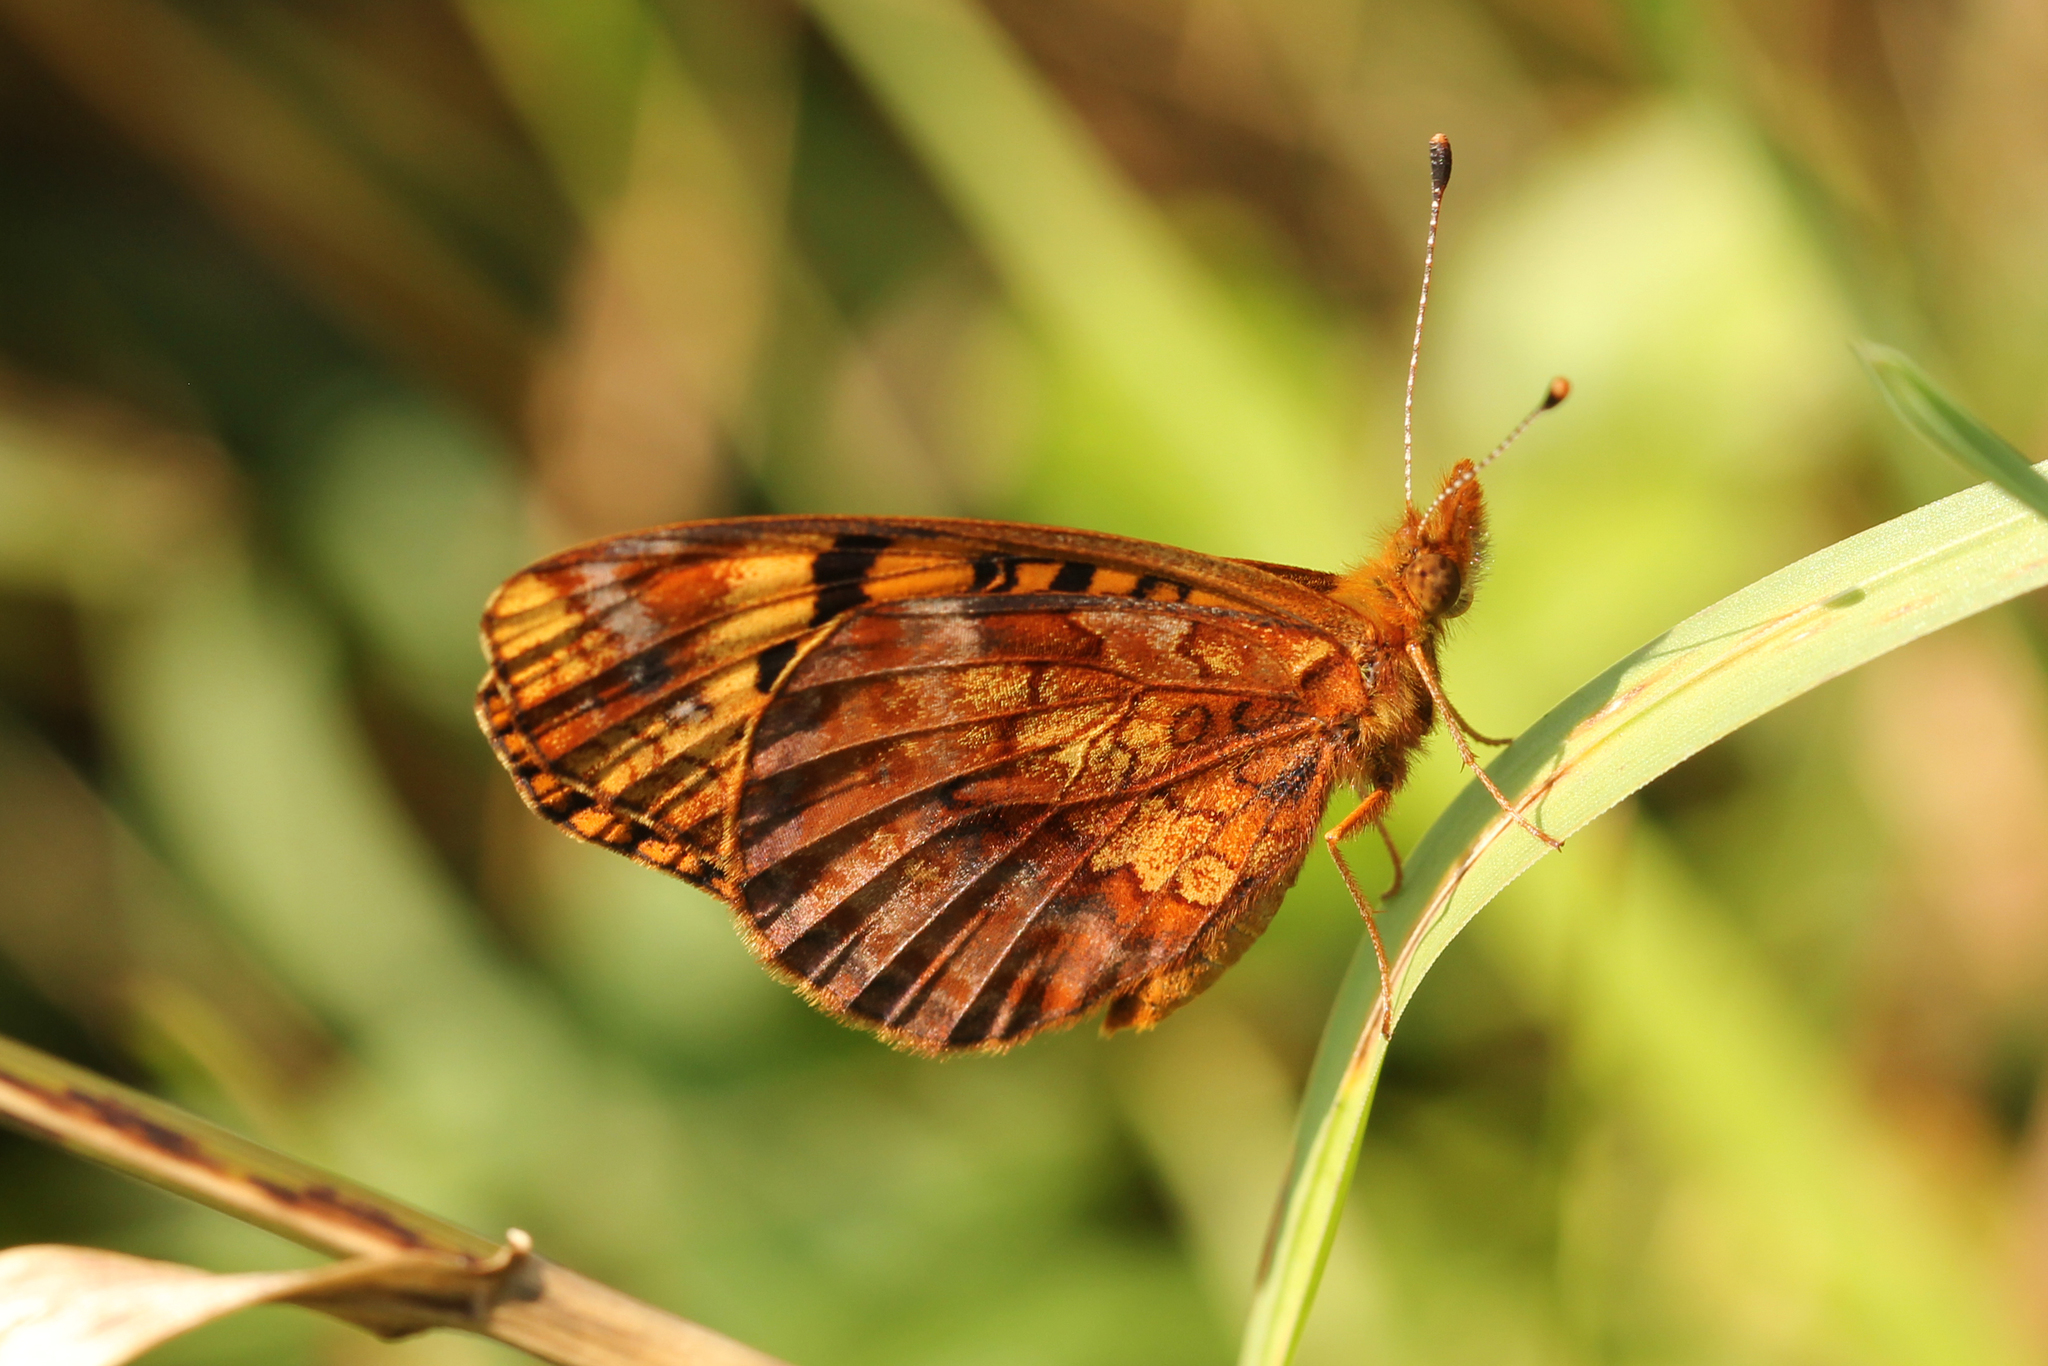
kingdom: Animalia
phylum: Arthropoda
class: Insecta
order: Lepidoptera
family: Nymphalidae
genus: Clossiana
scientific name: Clossiana toddi
